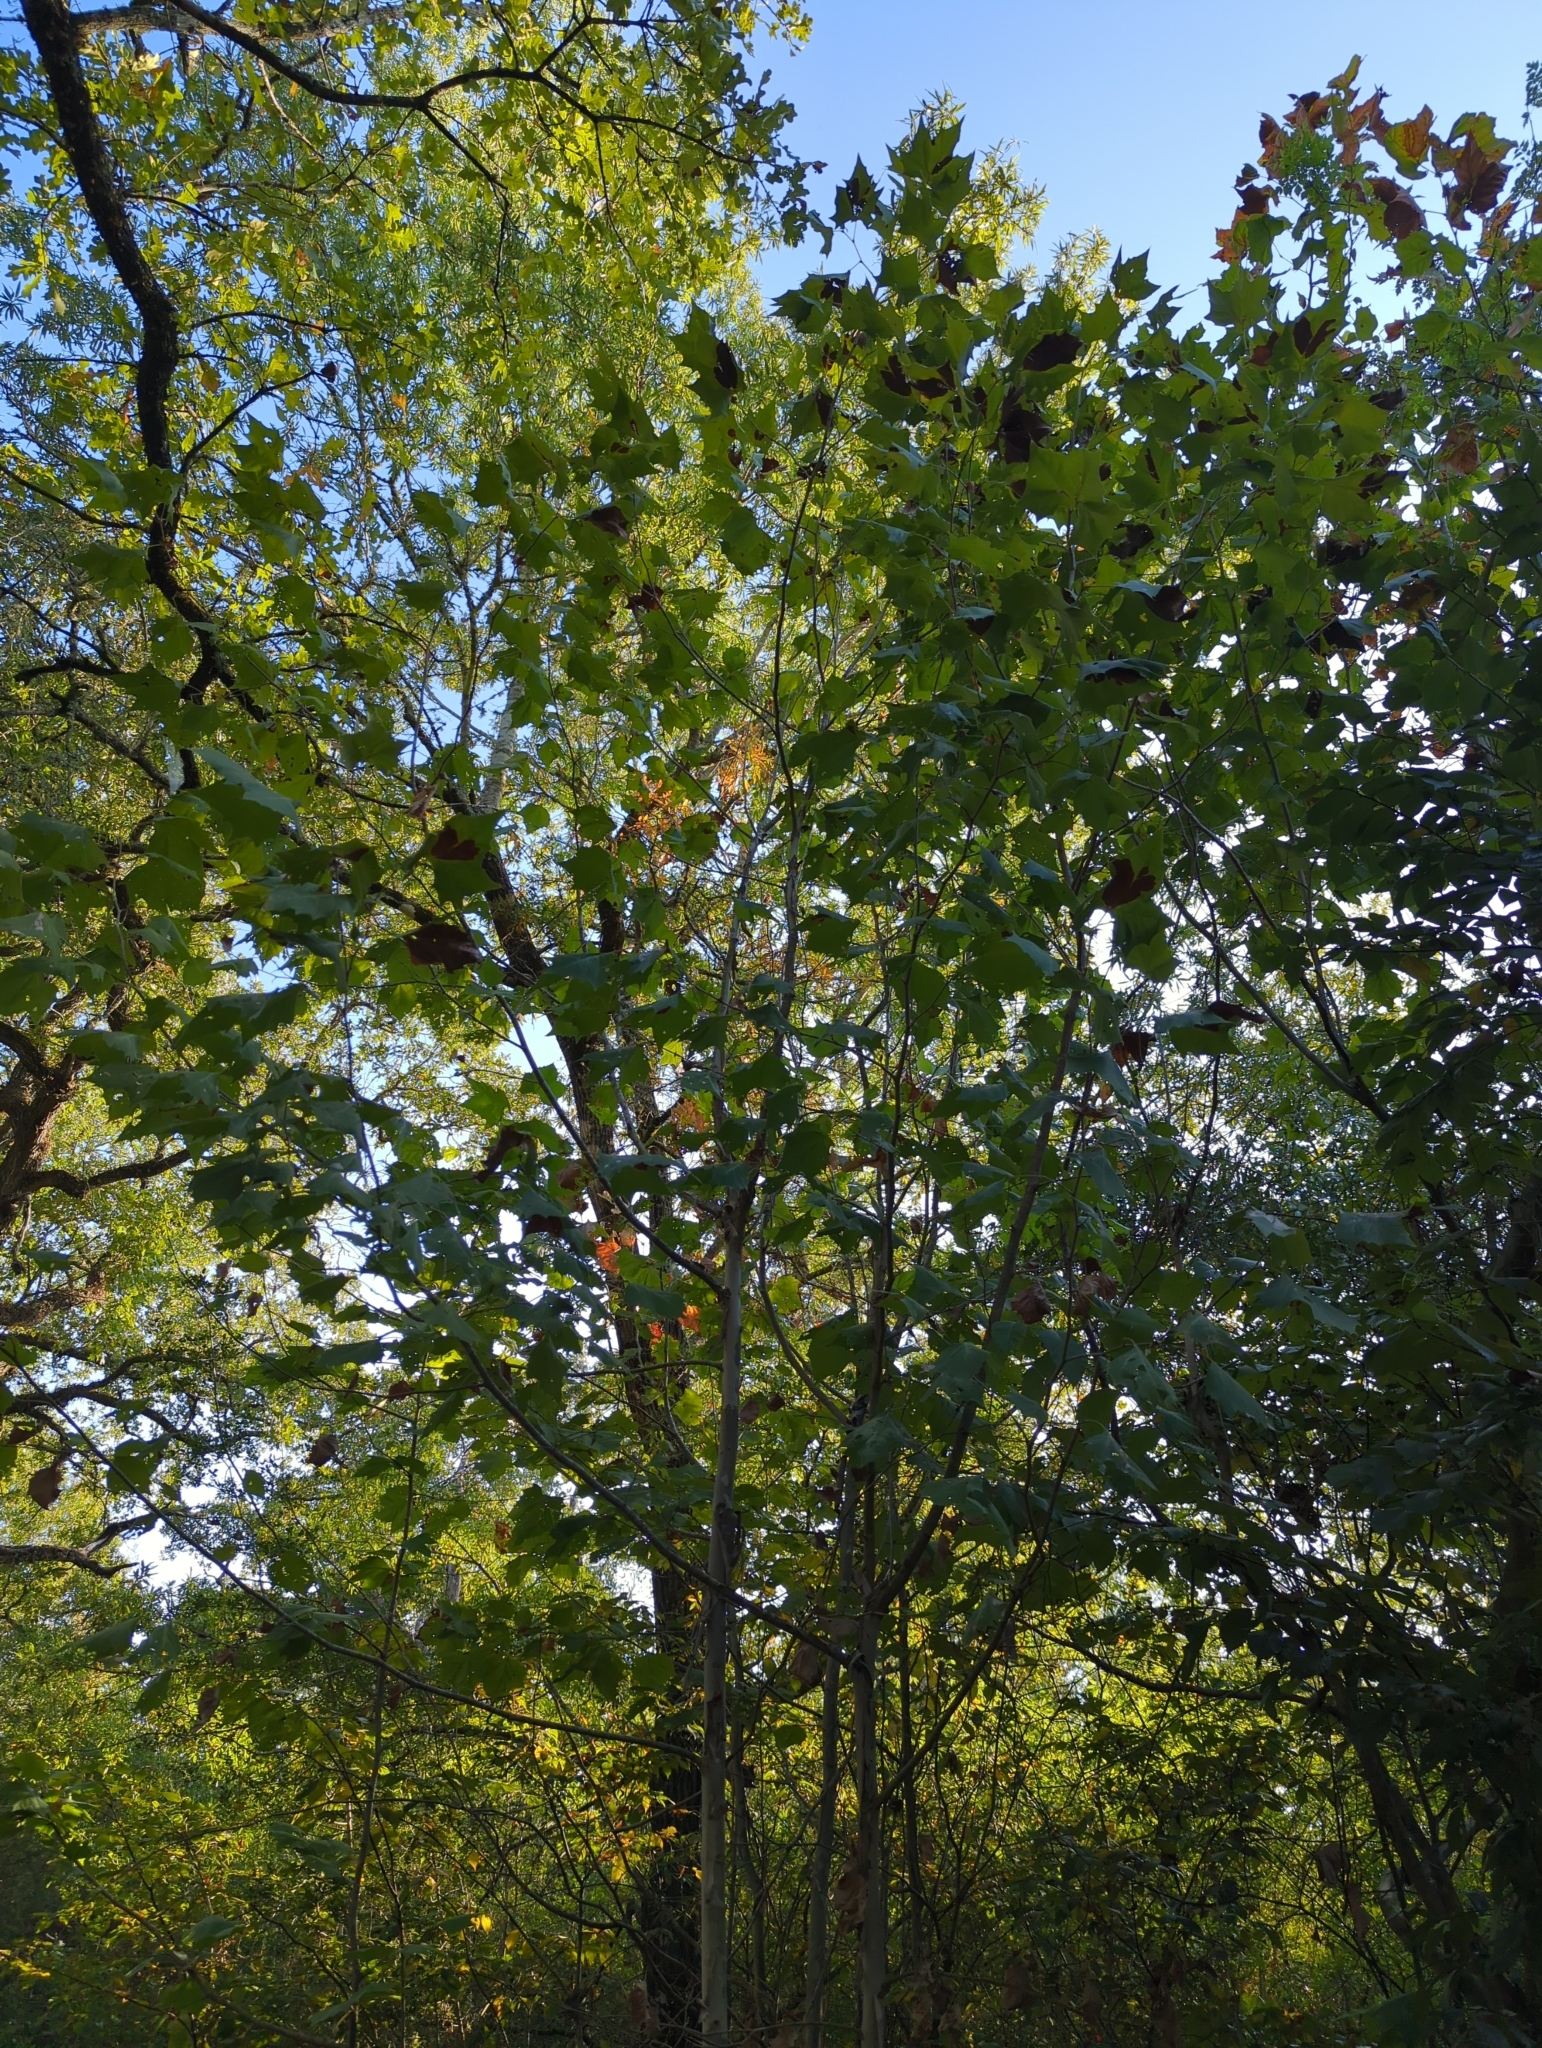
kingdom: Plantae
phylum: Tracheophyta
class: Magnoliopsida
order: Proteales
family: Platanaceae
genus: Platanus
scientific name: Platanus occidentalis
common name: American sycamore
